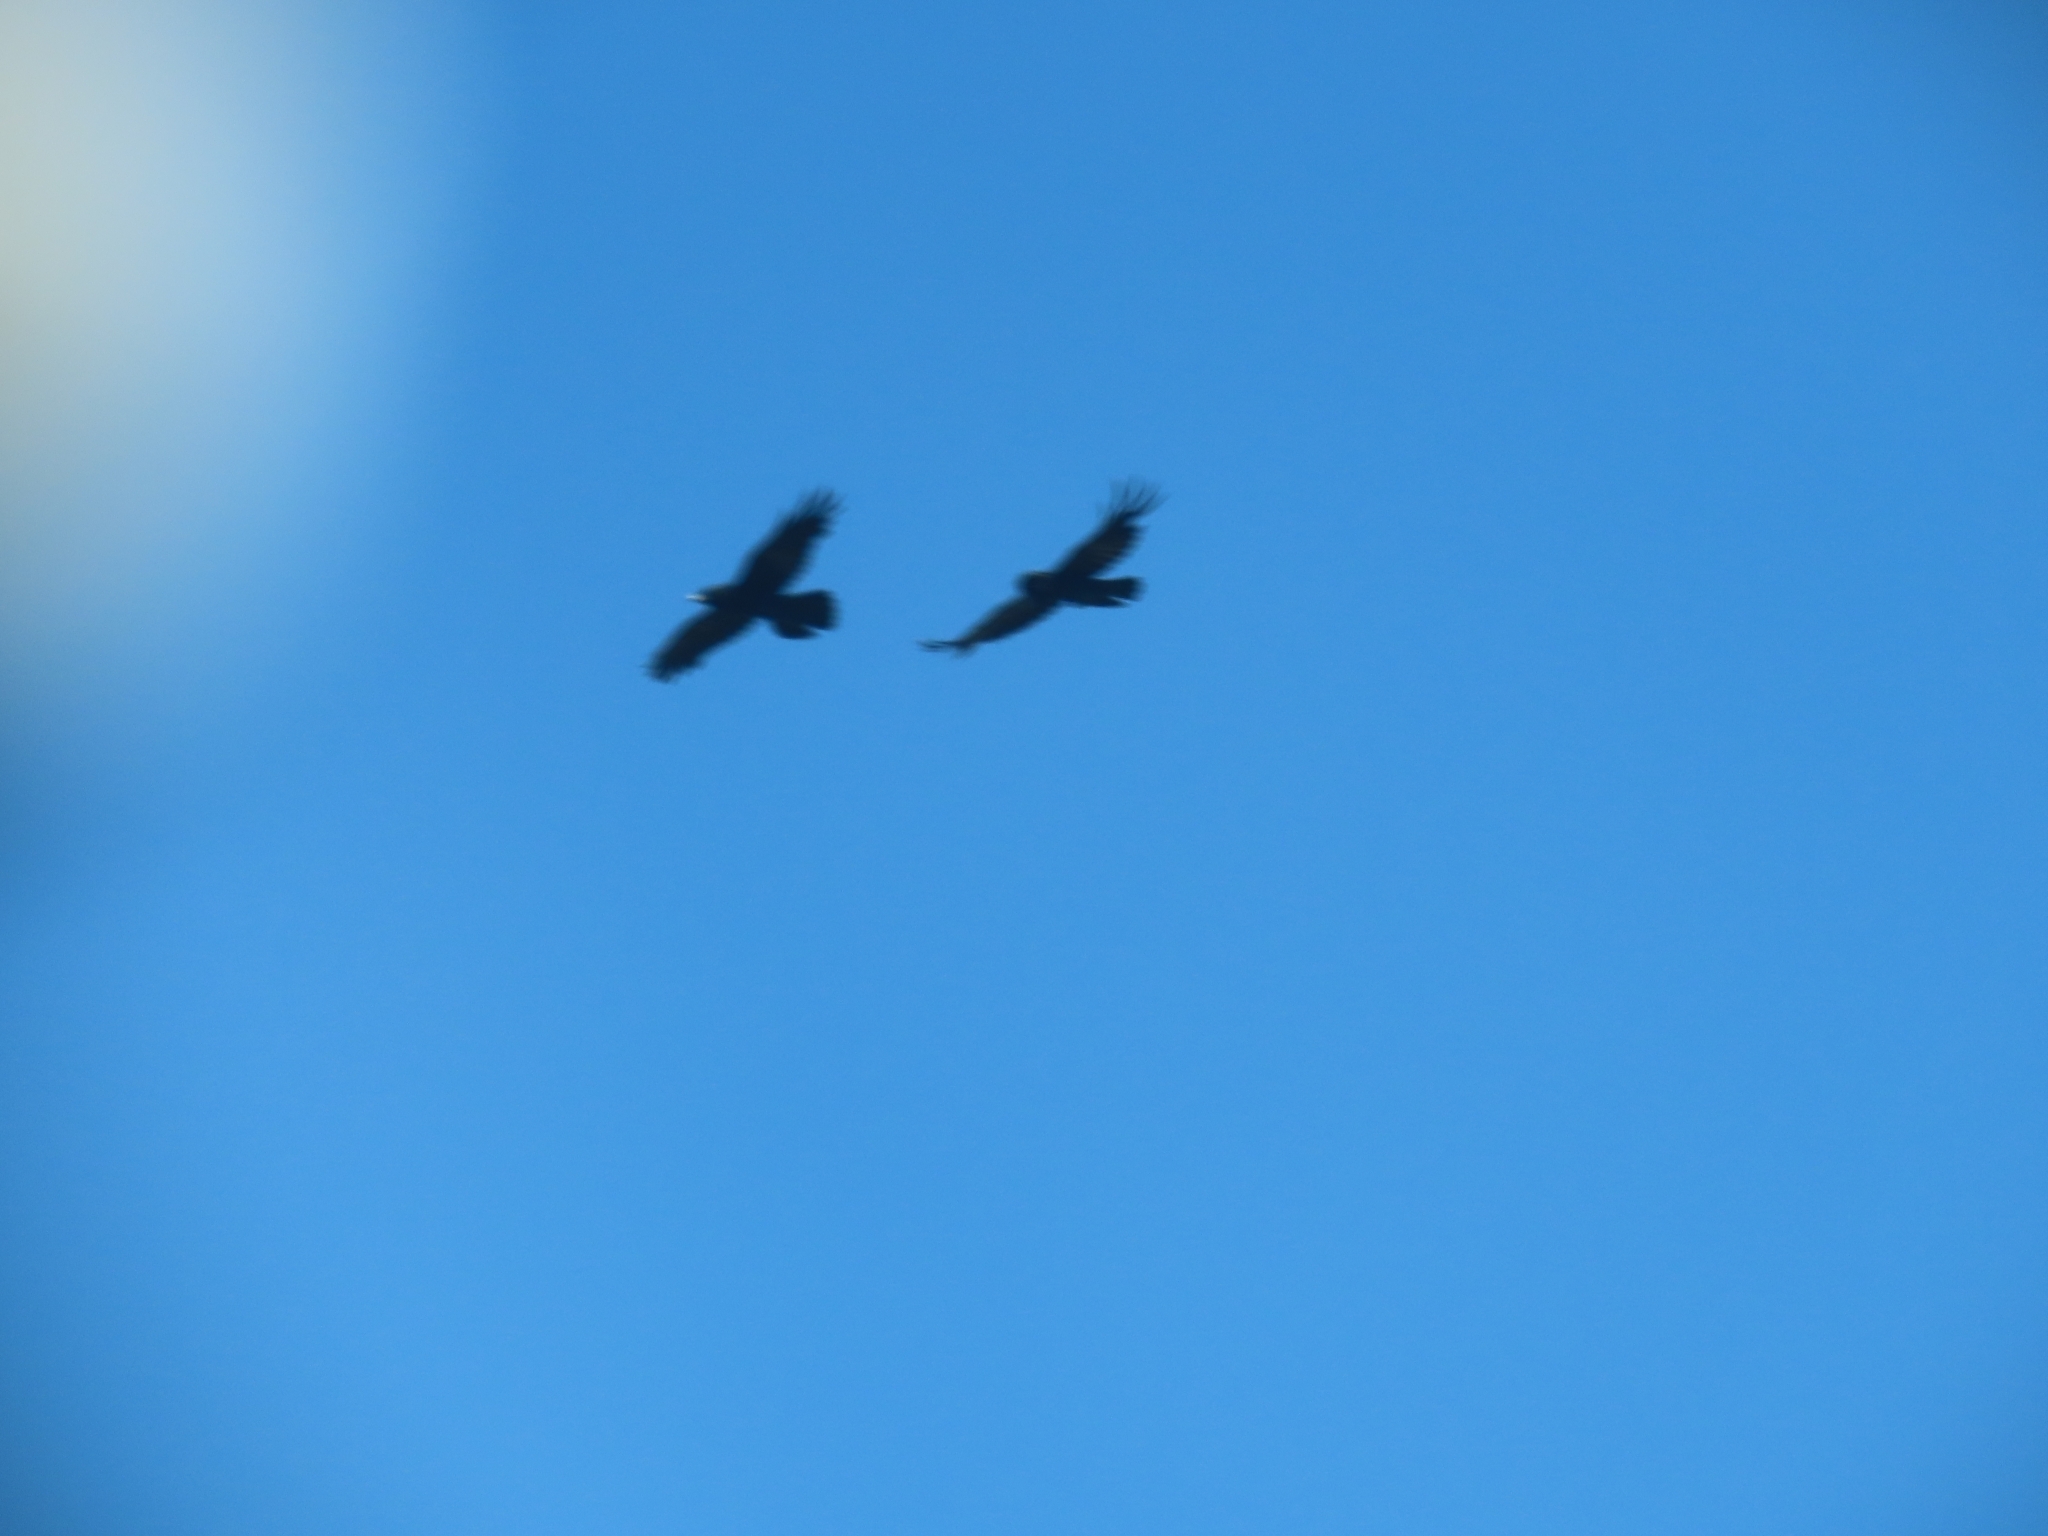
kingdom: Animalia
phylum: Chordata
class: Aves
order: Passeriformes
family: Corvidae
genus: Corvus
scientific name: Corvus corax
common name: Common raven
